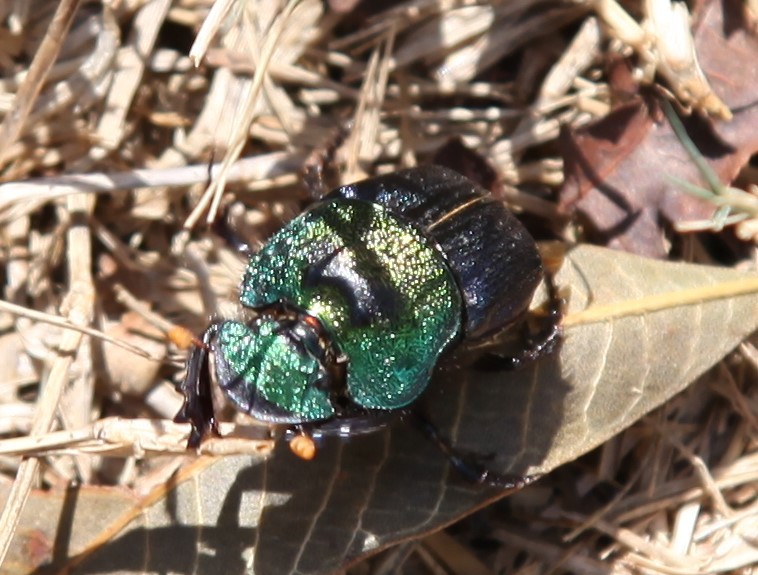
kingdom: Animalia
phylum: Arthropoda
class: Insecta
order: Coleoptera
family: Scarabaeidae
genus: Phanaeus
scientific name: Phanaeus difformis
